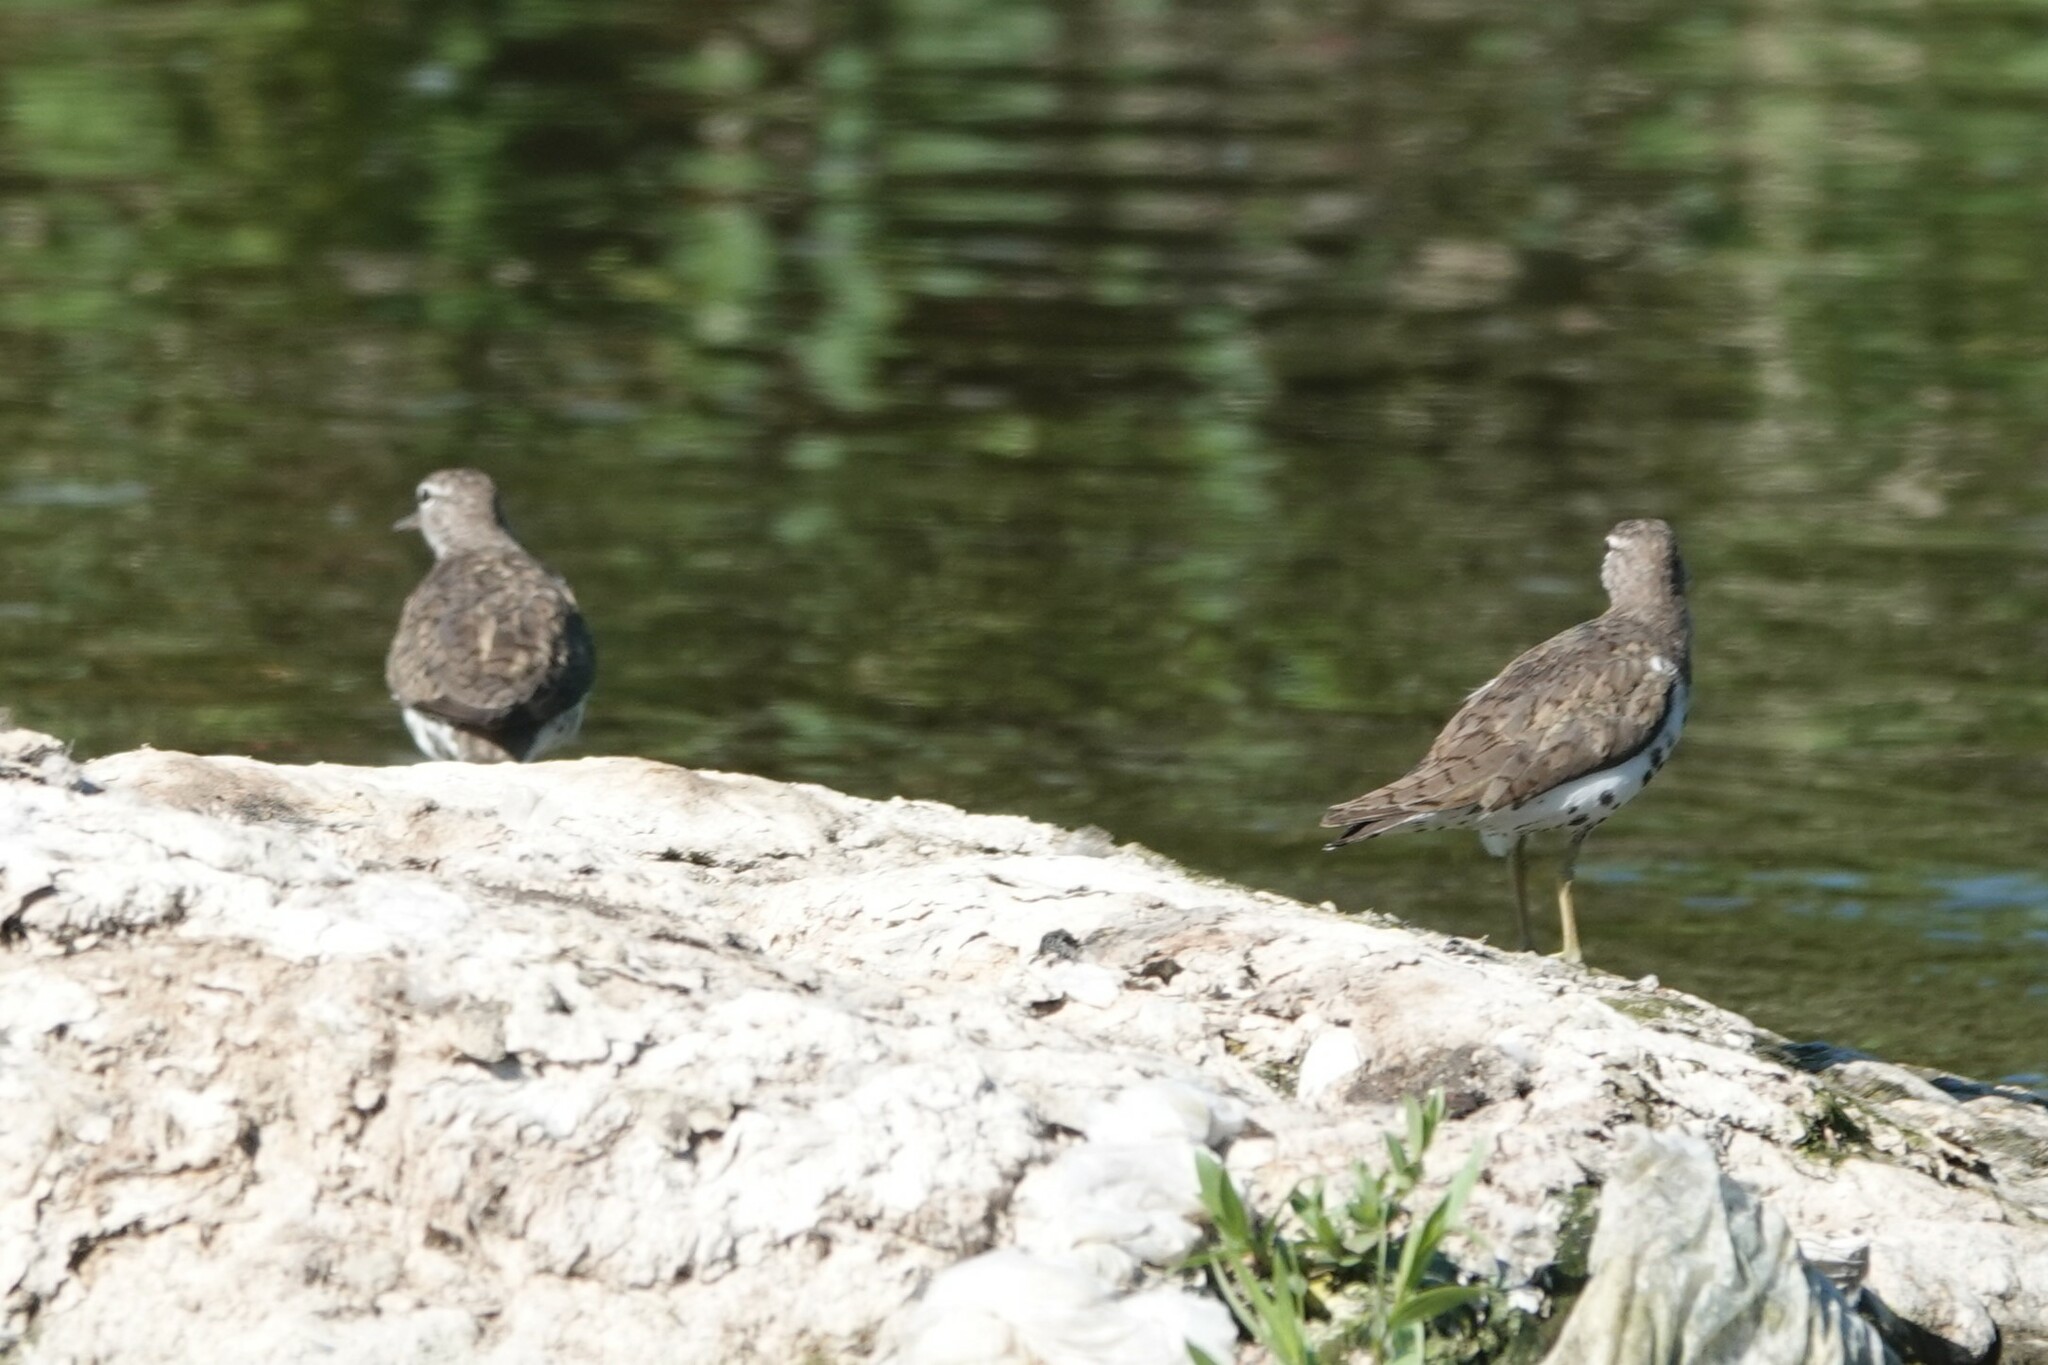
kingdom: Animalia
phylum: Chordata
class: Aves
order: Charadriiformes
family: Scolopacidae
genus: Actitis
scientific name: Actitis macularius
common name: Spotted sandpiper
